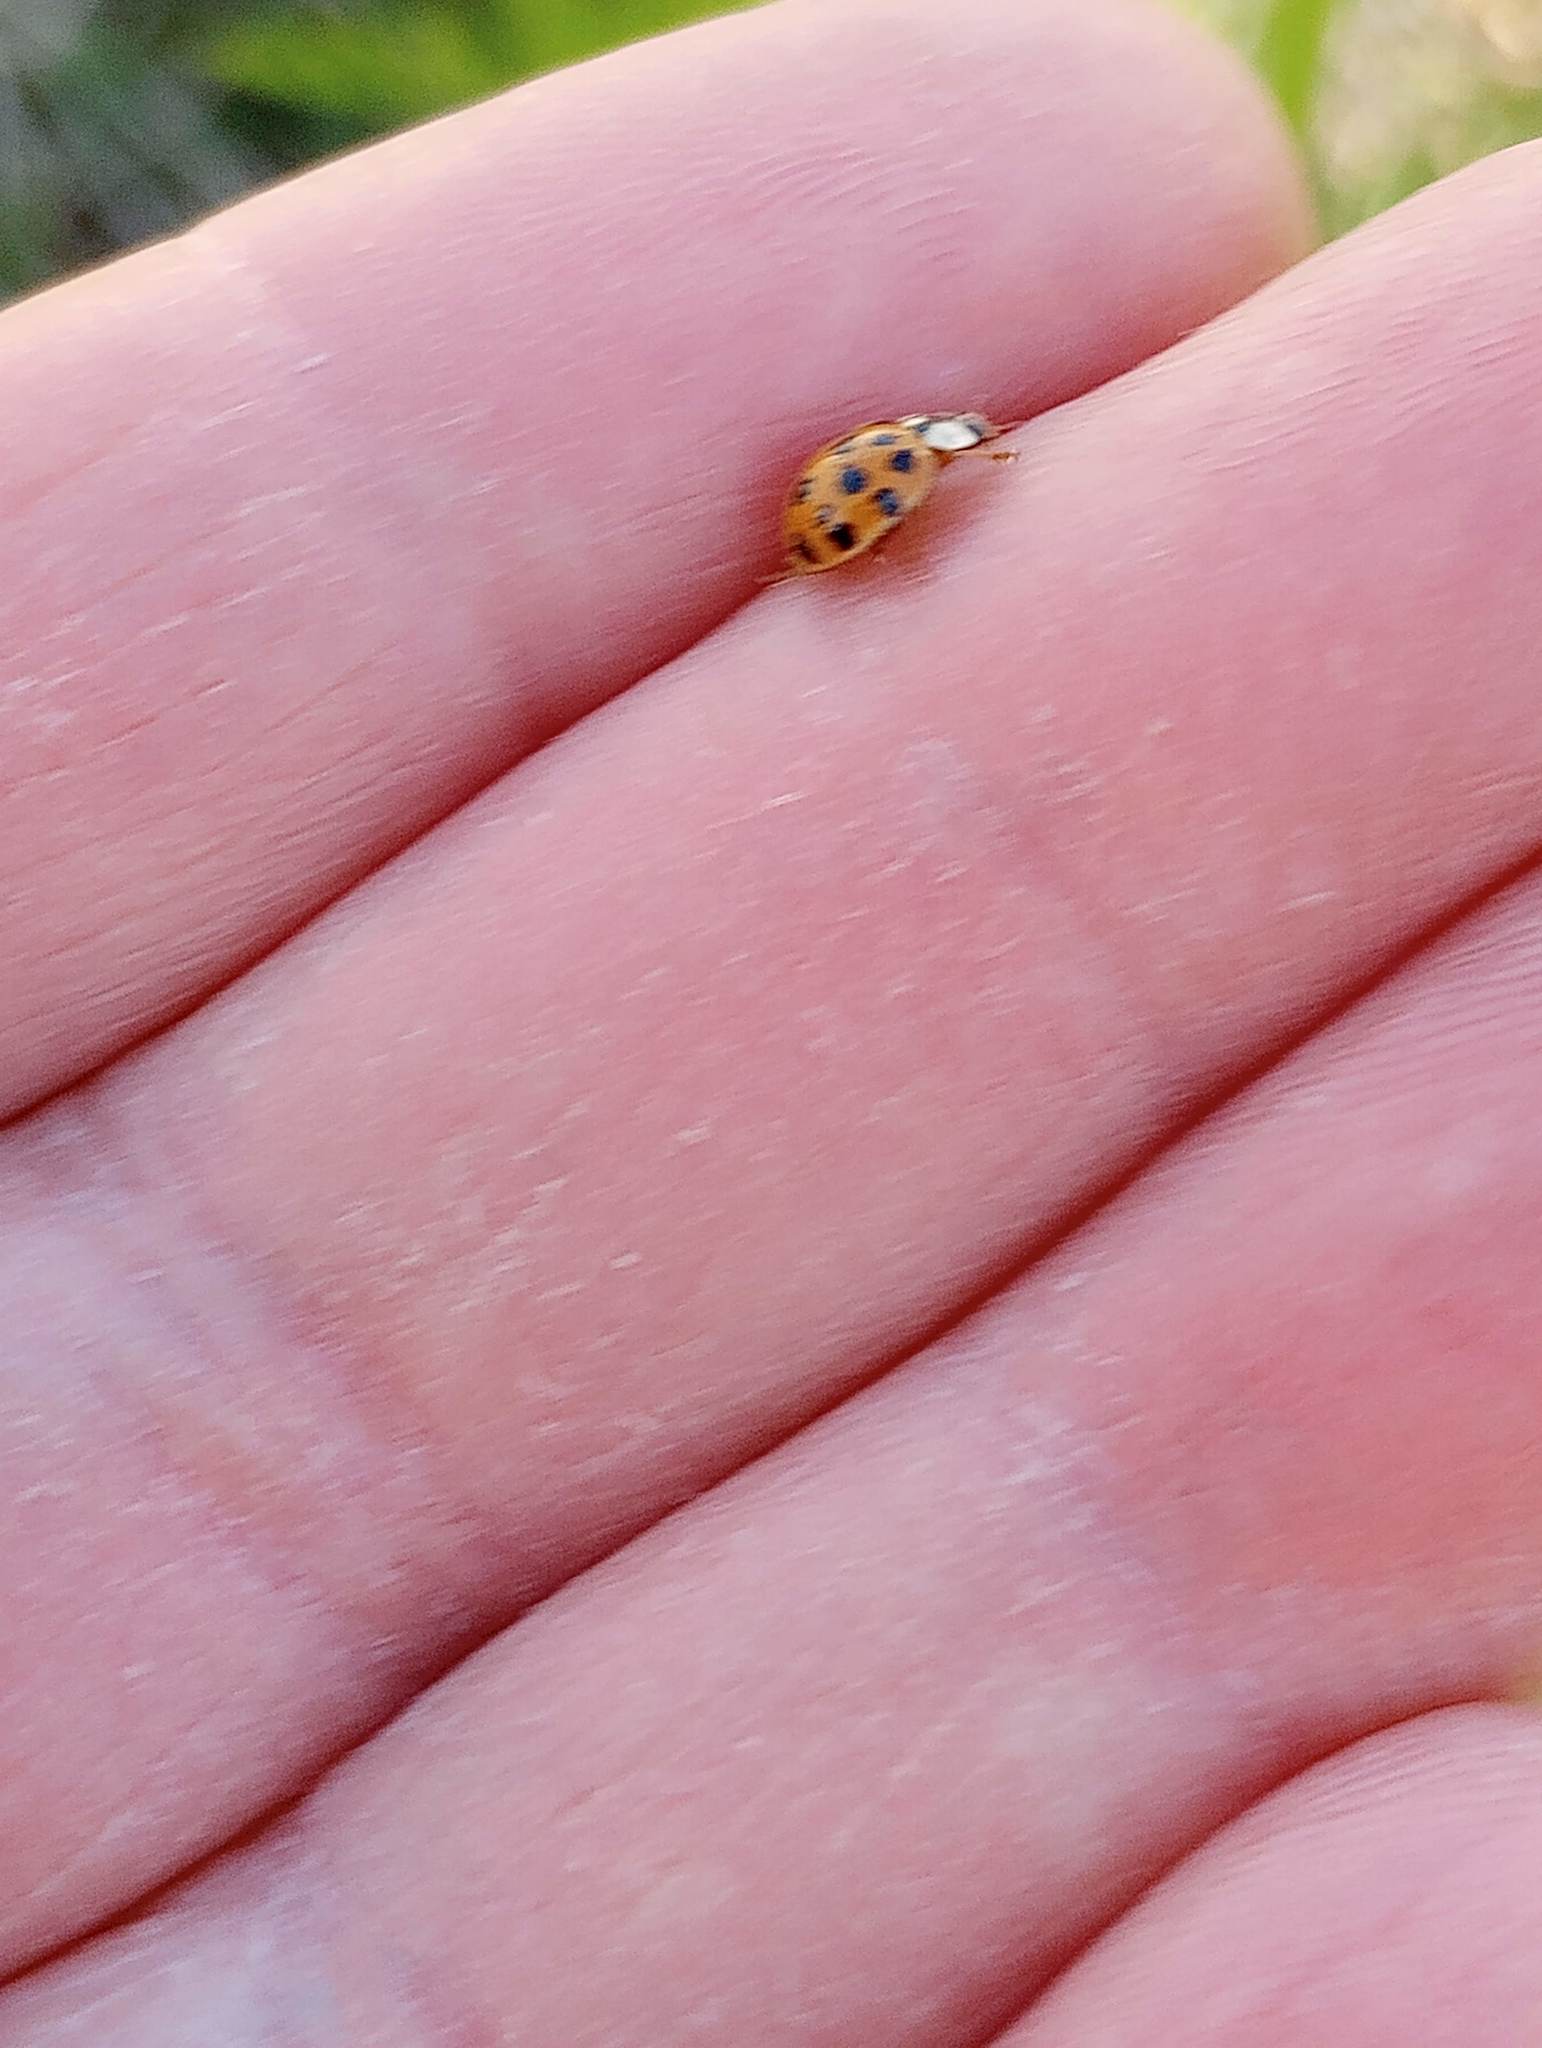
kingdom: Animalia
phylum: Arthropoda
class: Insecta
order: Coleoptera
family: Coccinellidae
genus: Harmonia
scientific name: Harmonia axyridis
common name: Harlequin ladybird
